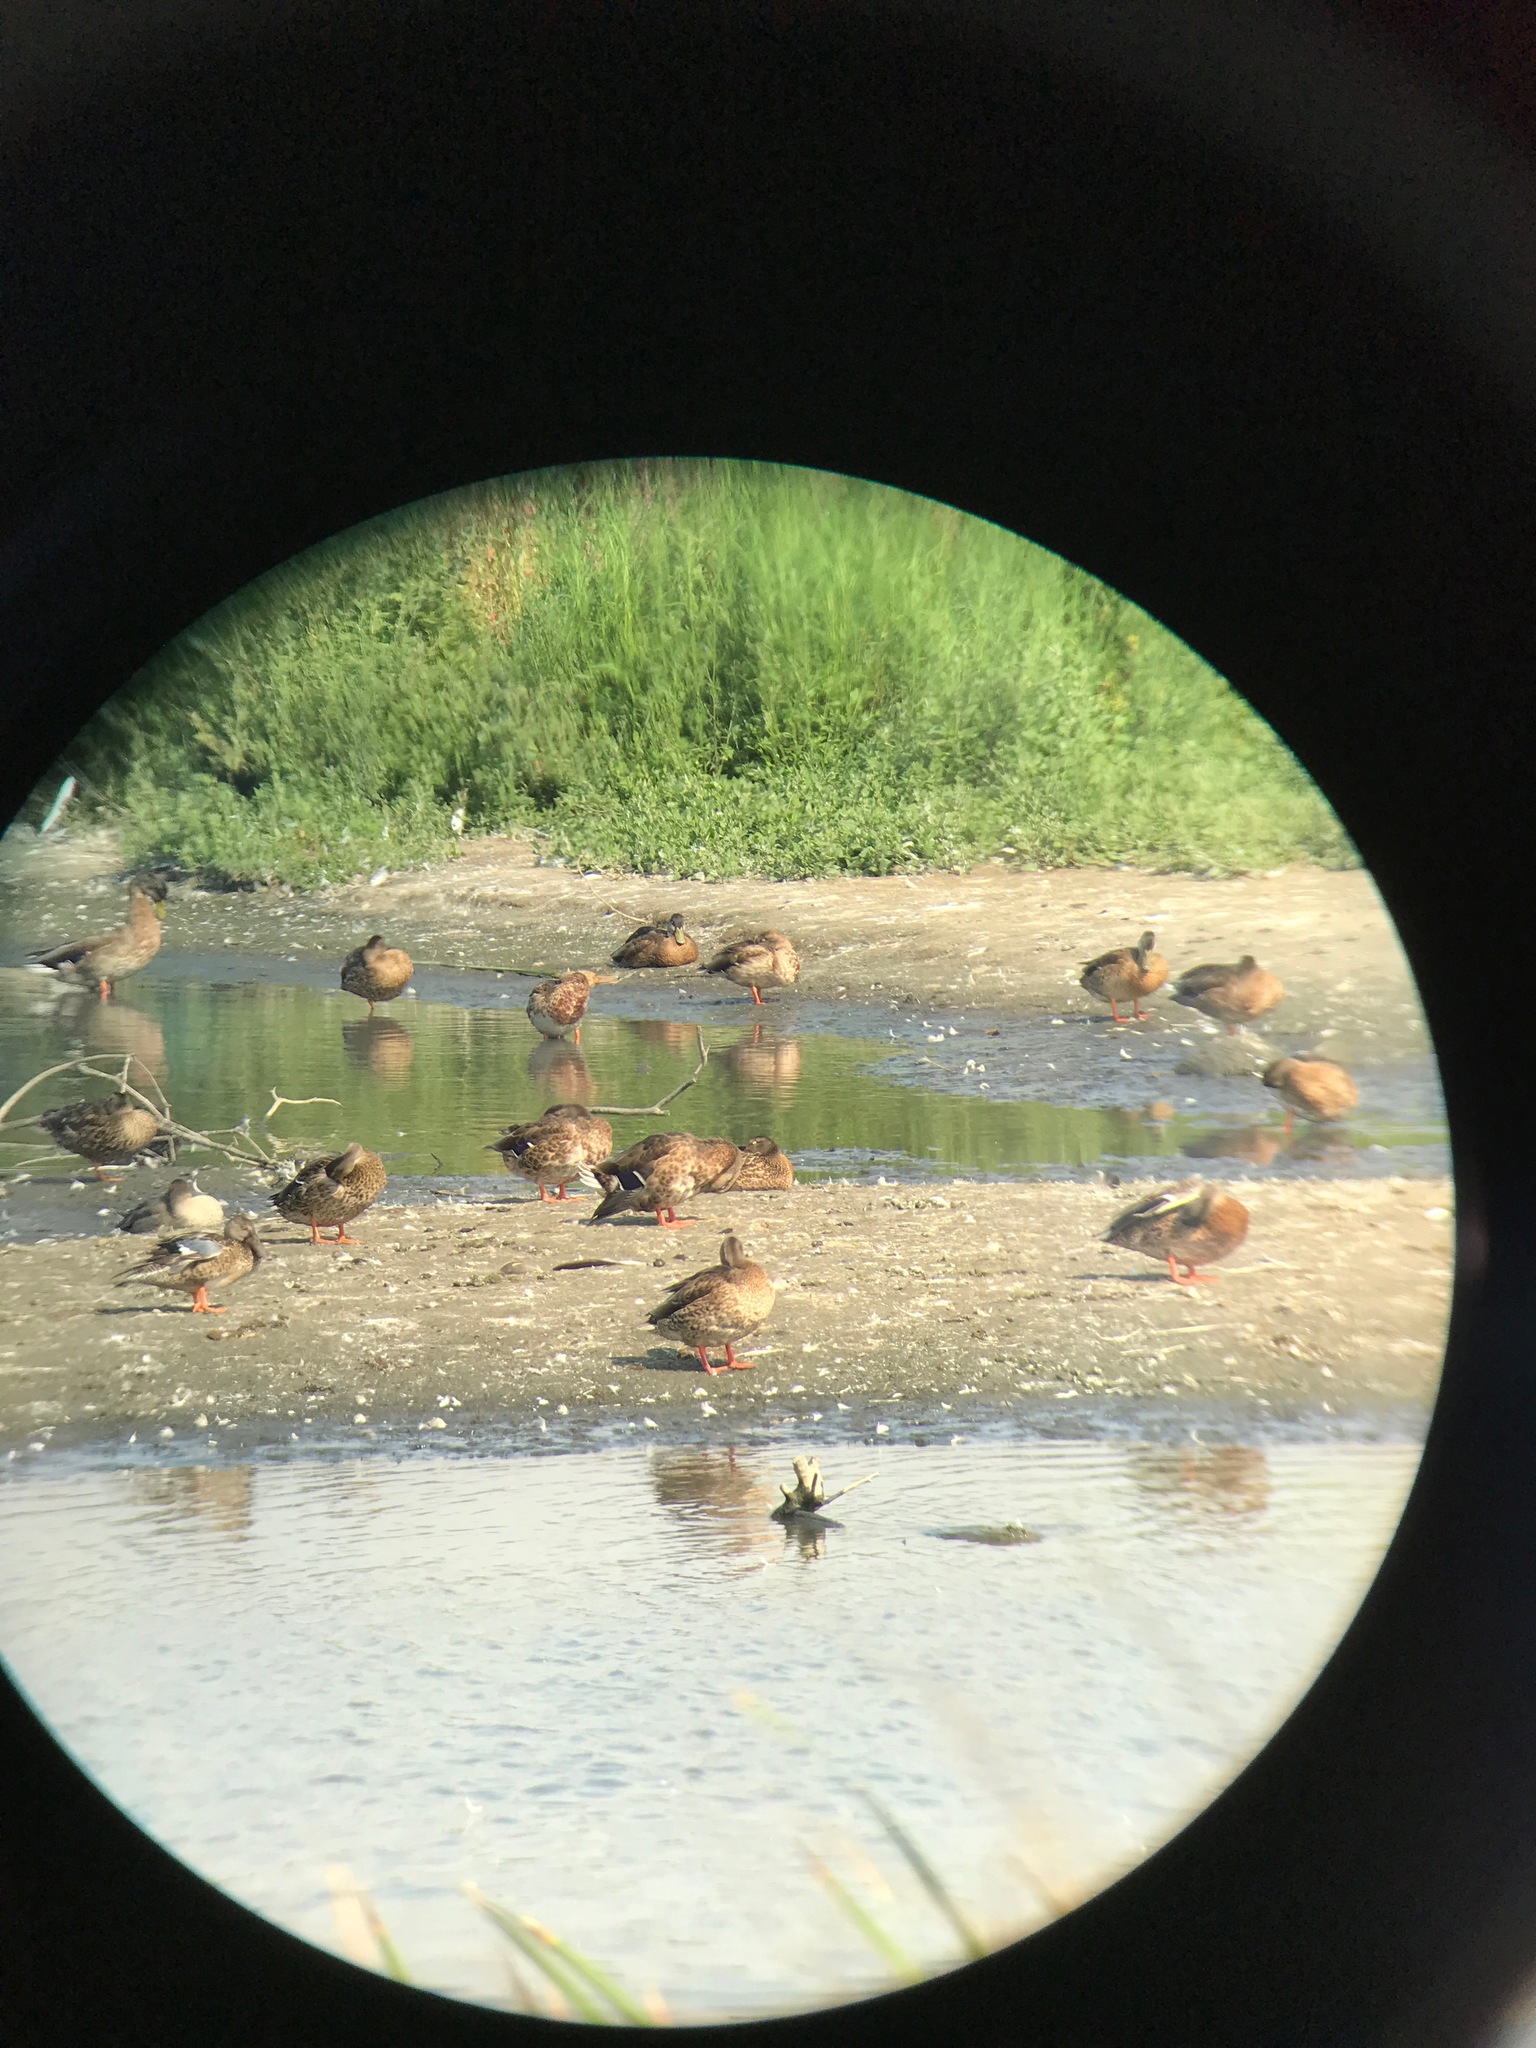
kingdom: Animalia
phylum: Chordata
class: Aves
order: Anseriformes
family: Anatidae
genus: Anas
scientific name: Anas platyrhynchos
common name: Mallard
